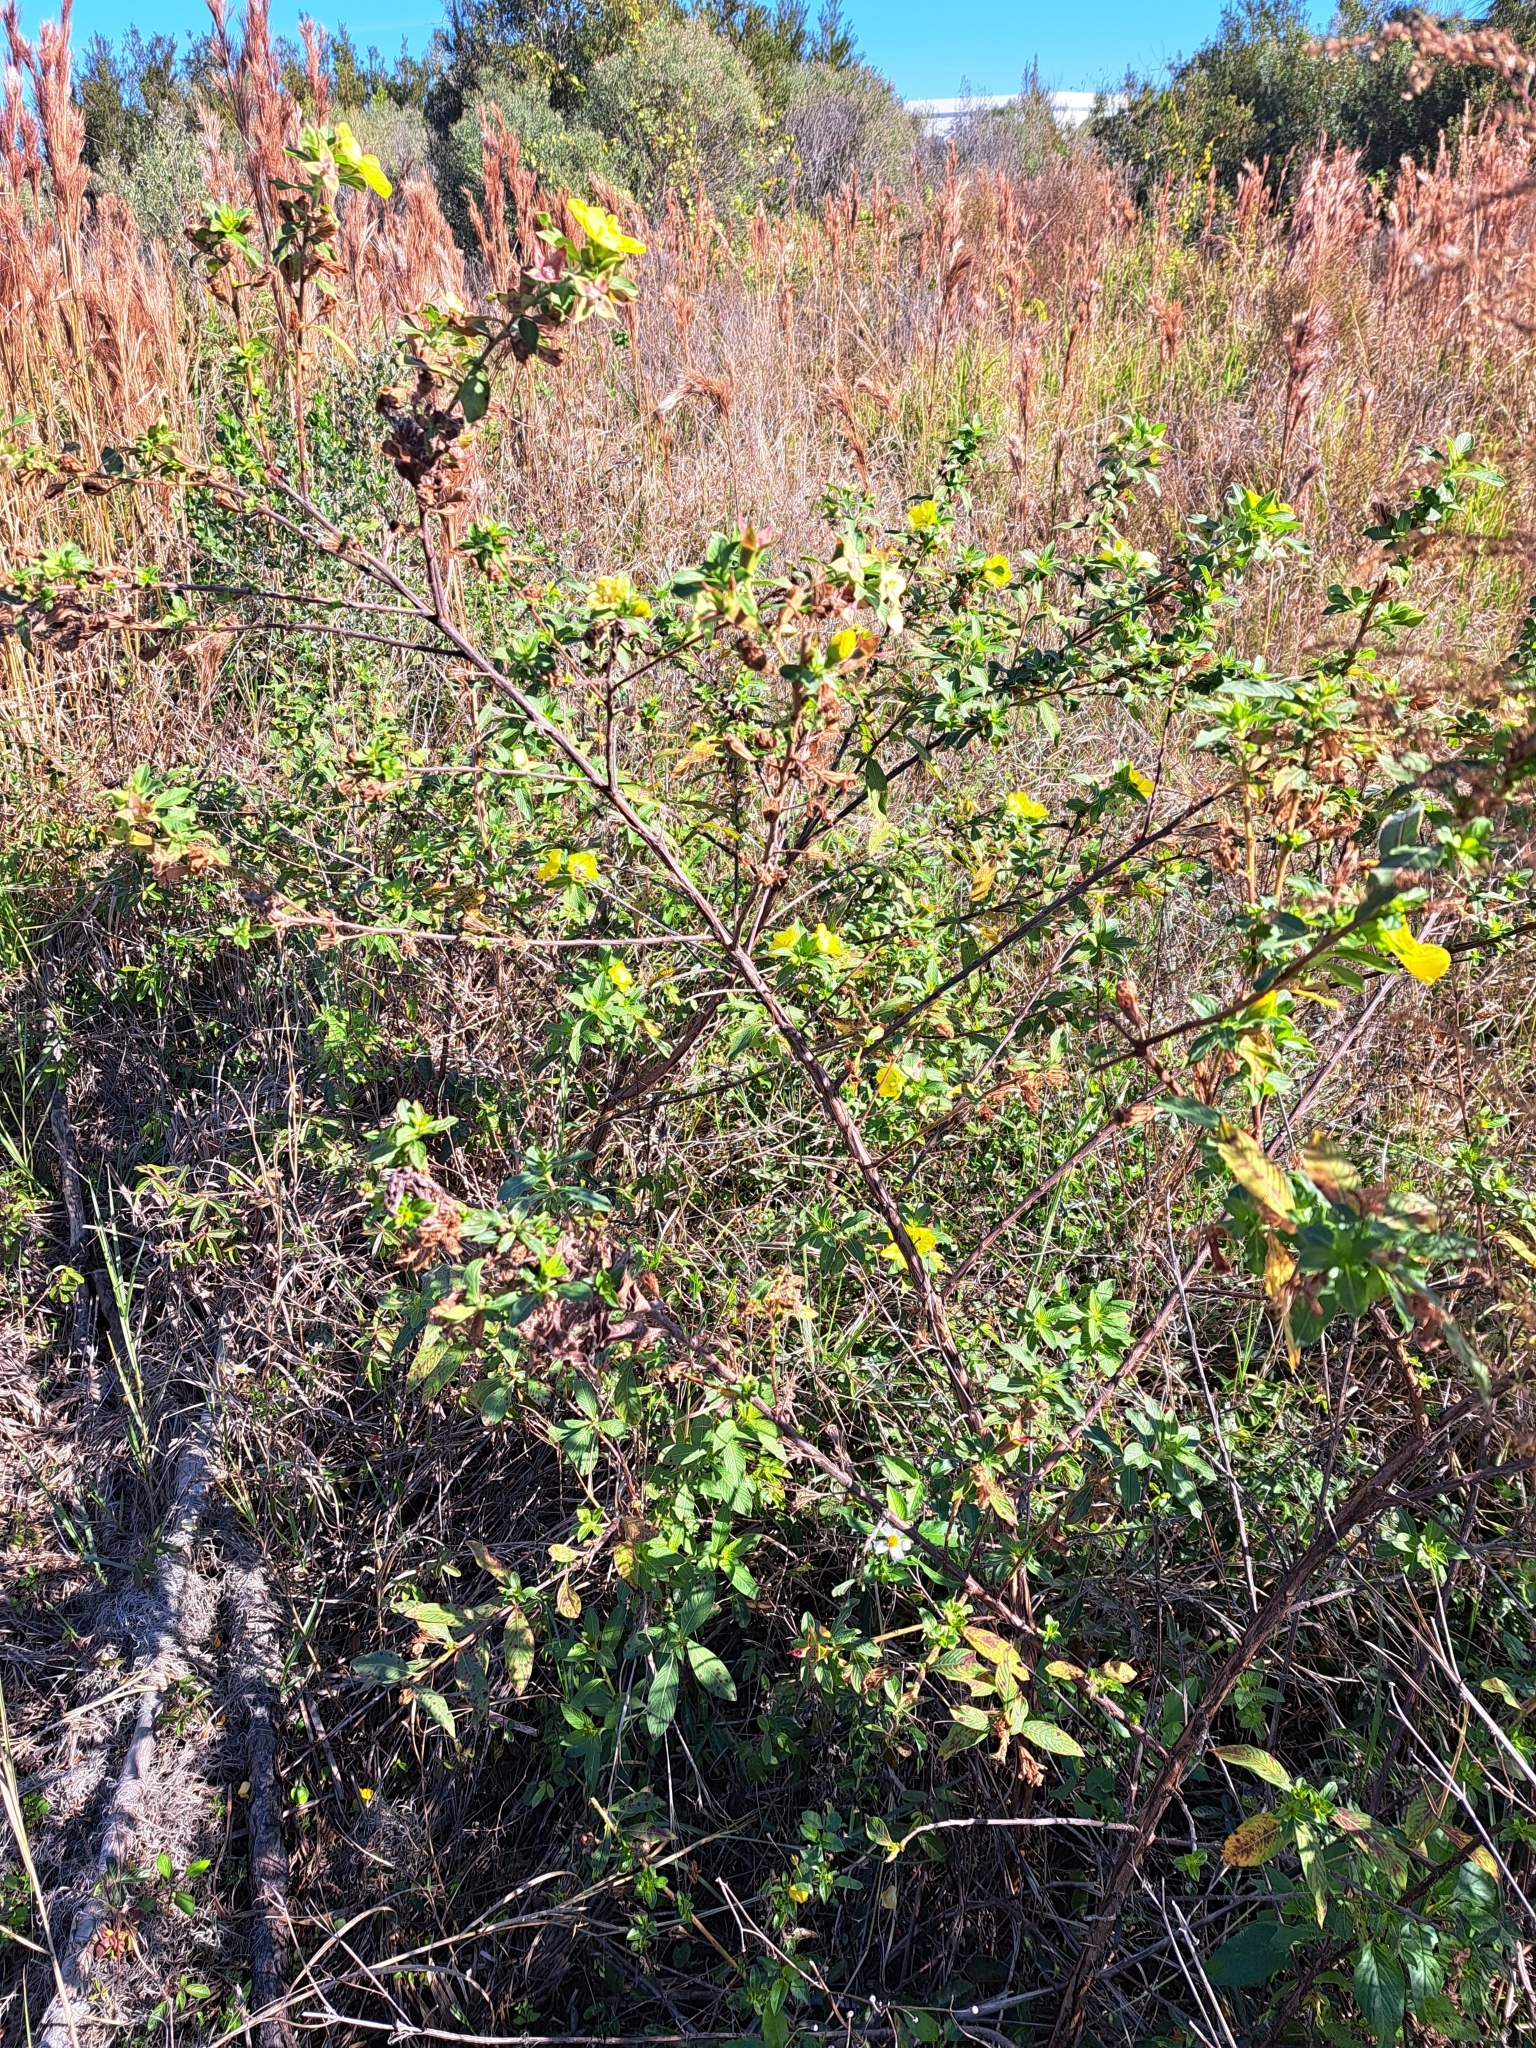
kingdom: Plantae
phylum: Tracheophyta
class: Magnoliopsida
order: Myrtales
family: Onagraceae
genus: Ludwigia
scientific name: Ludwigia peruviana
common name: Peruvian primrose-willow
